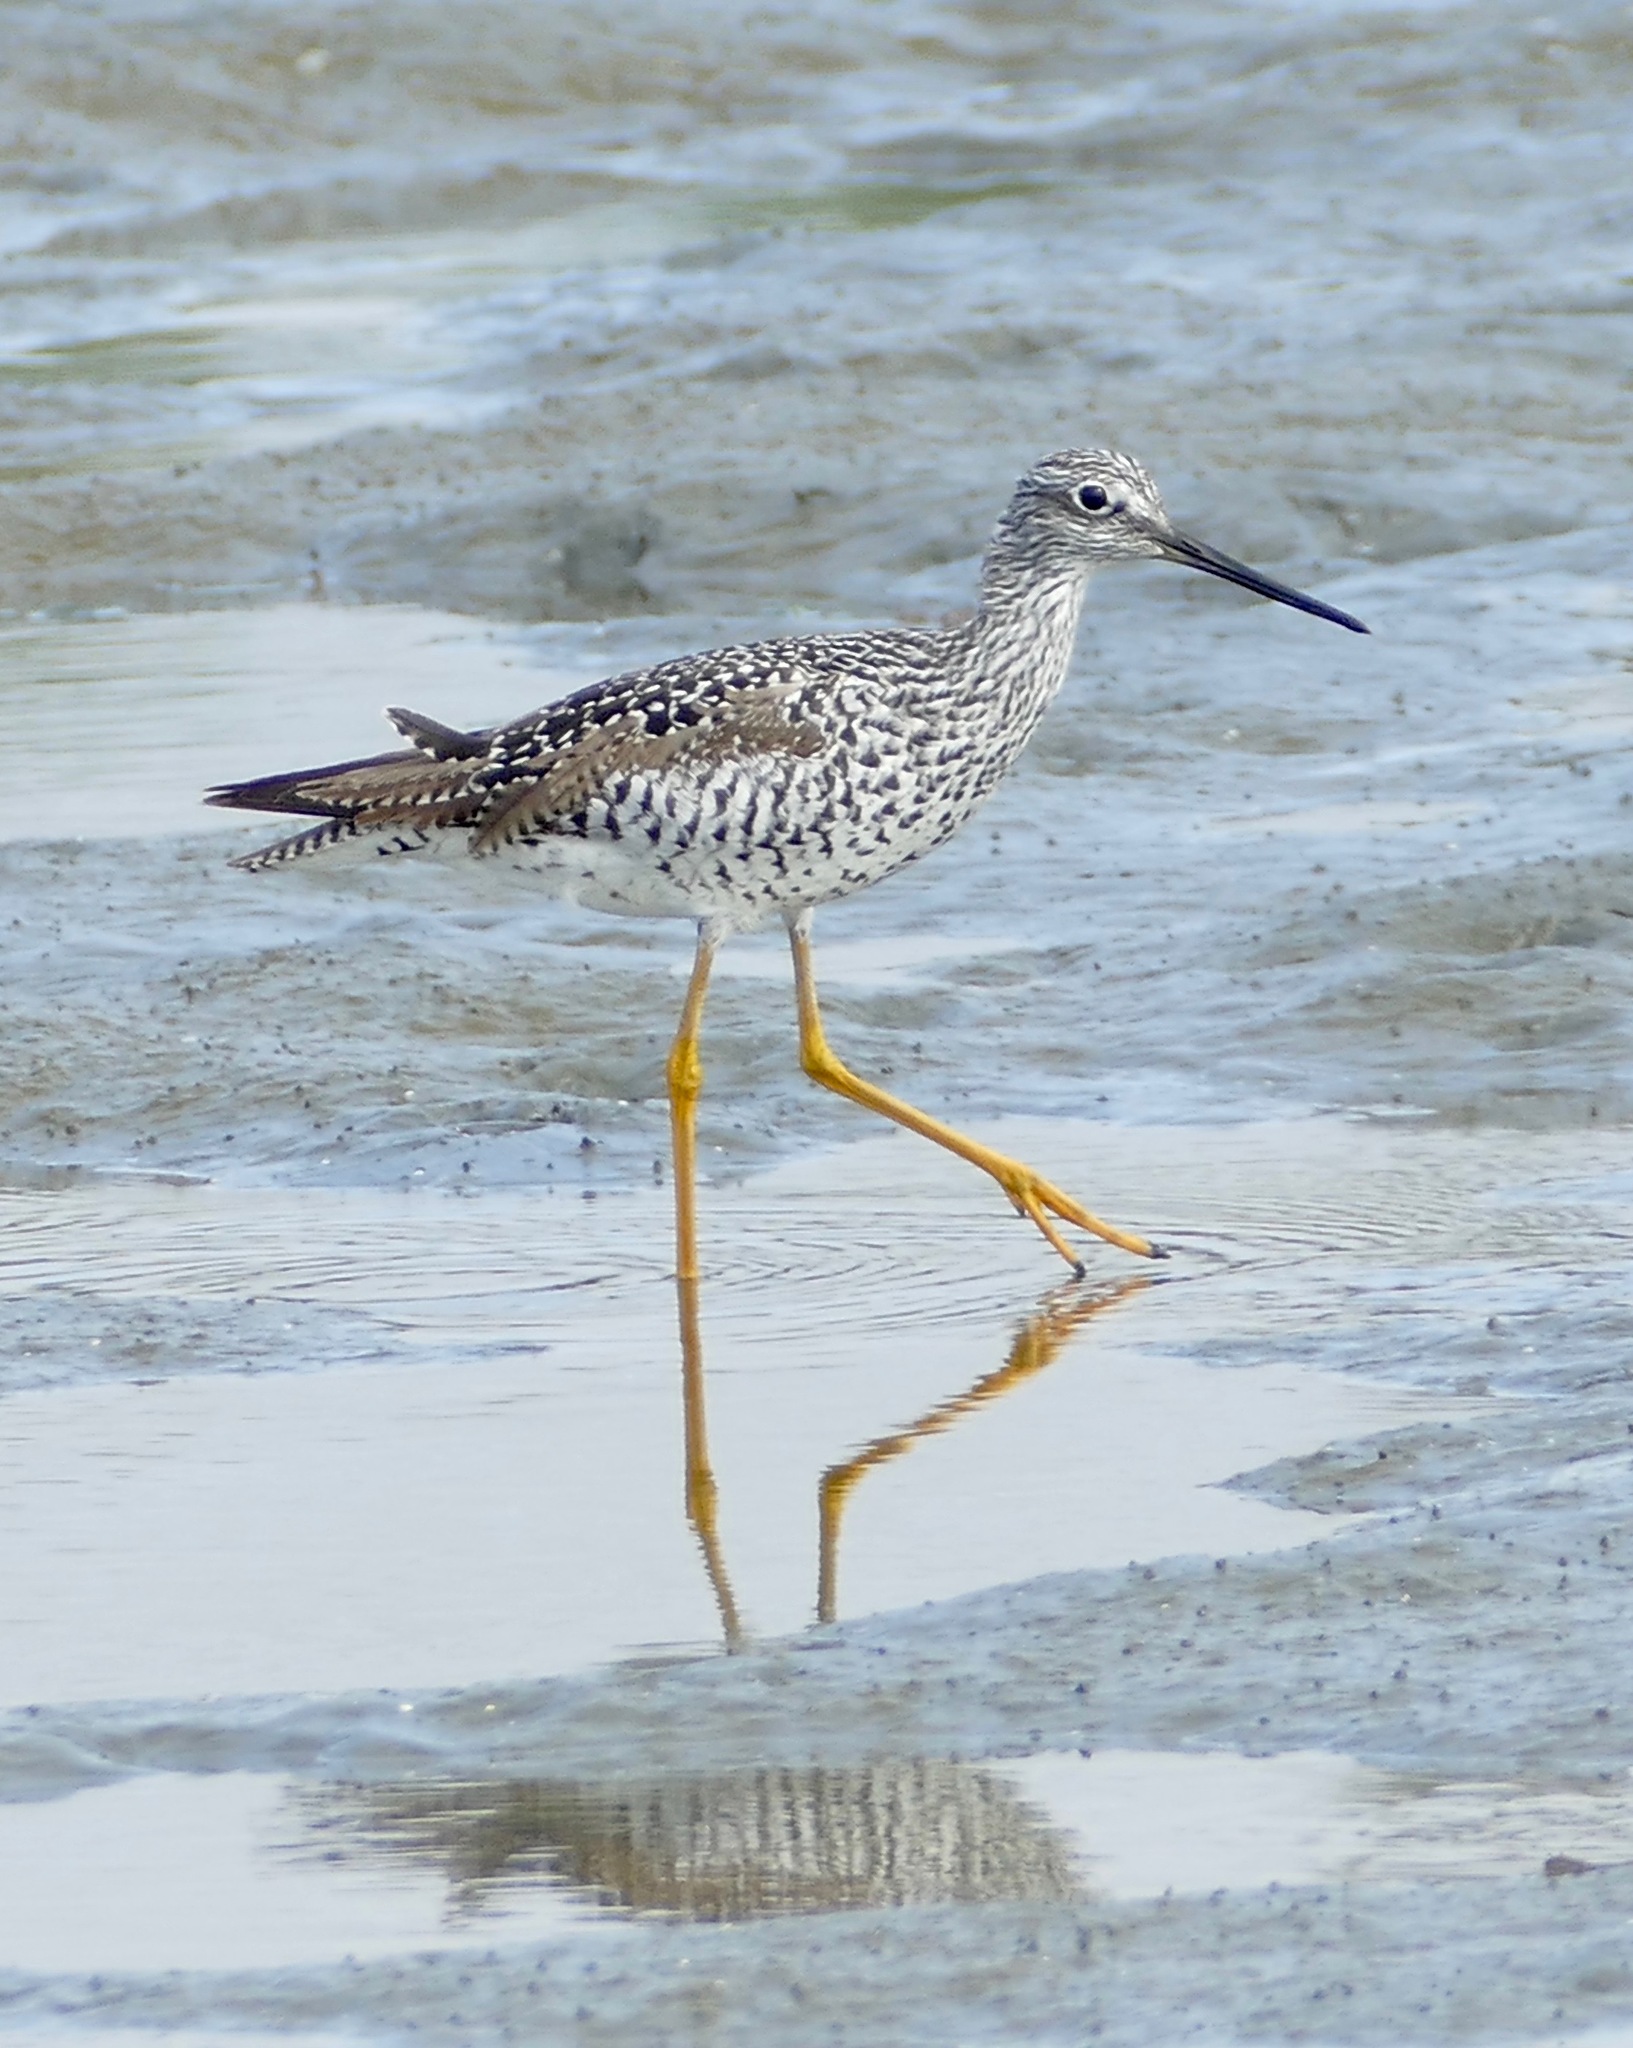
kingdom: Animalia
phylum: Chordata
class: Aves
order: Charadriiformes
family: Scolopacidae
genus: Tringa
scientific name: Tringa melanoleuca
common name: Greater yellowlegs
